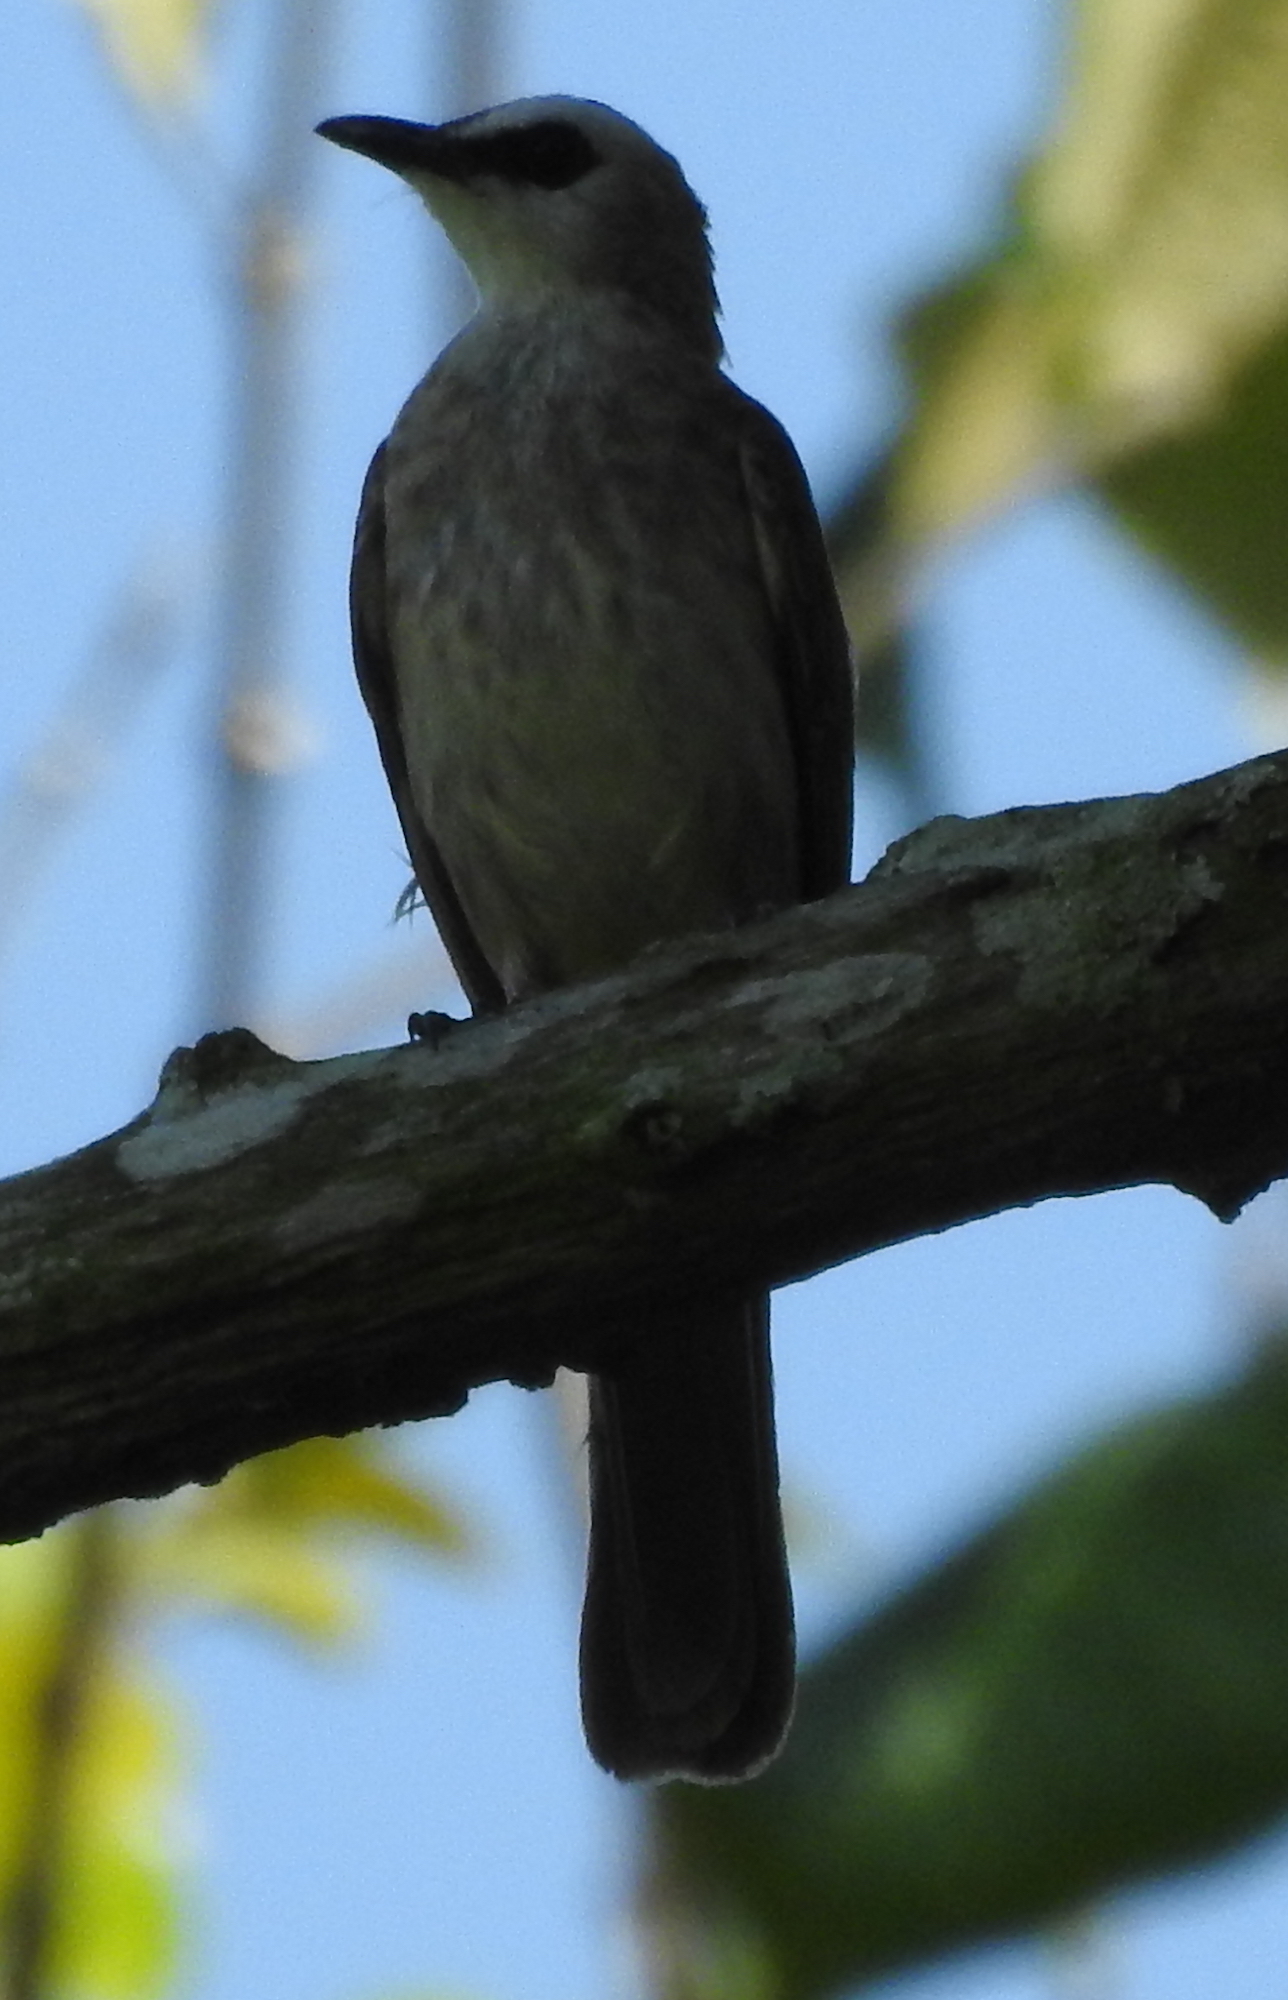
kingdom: Animalia
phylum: Chordata
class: Aves
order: Passeriformes
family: Pycnonotidae
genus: Pycnonotus
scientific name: Pycnonotus goiavier
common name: Yellow-vented bulbul
